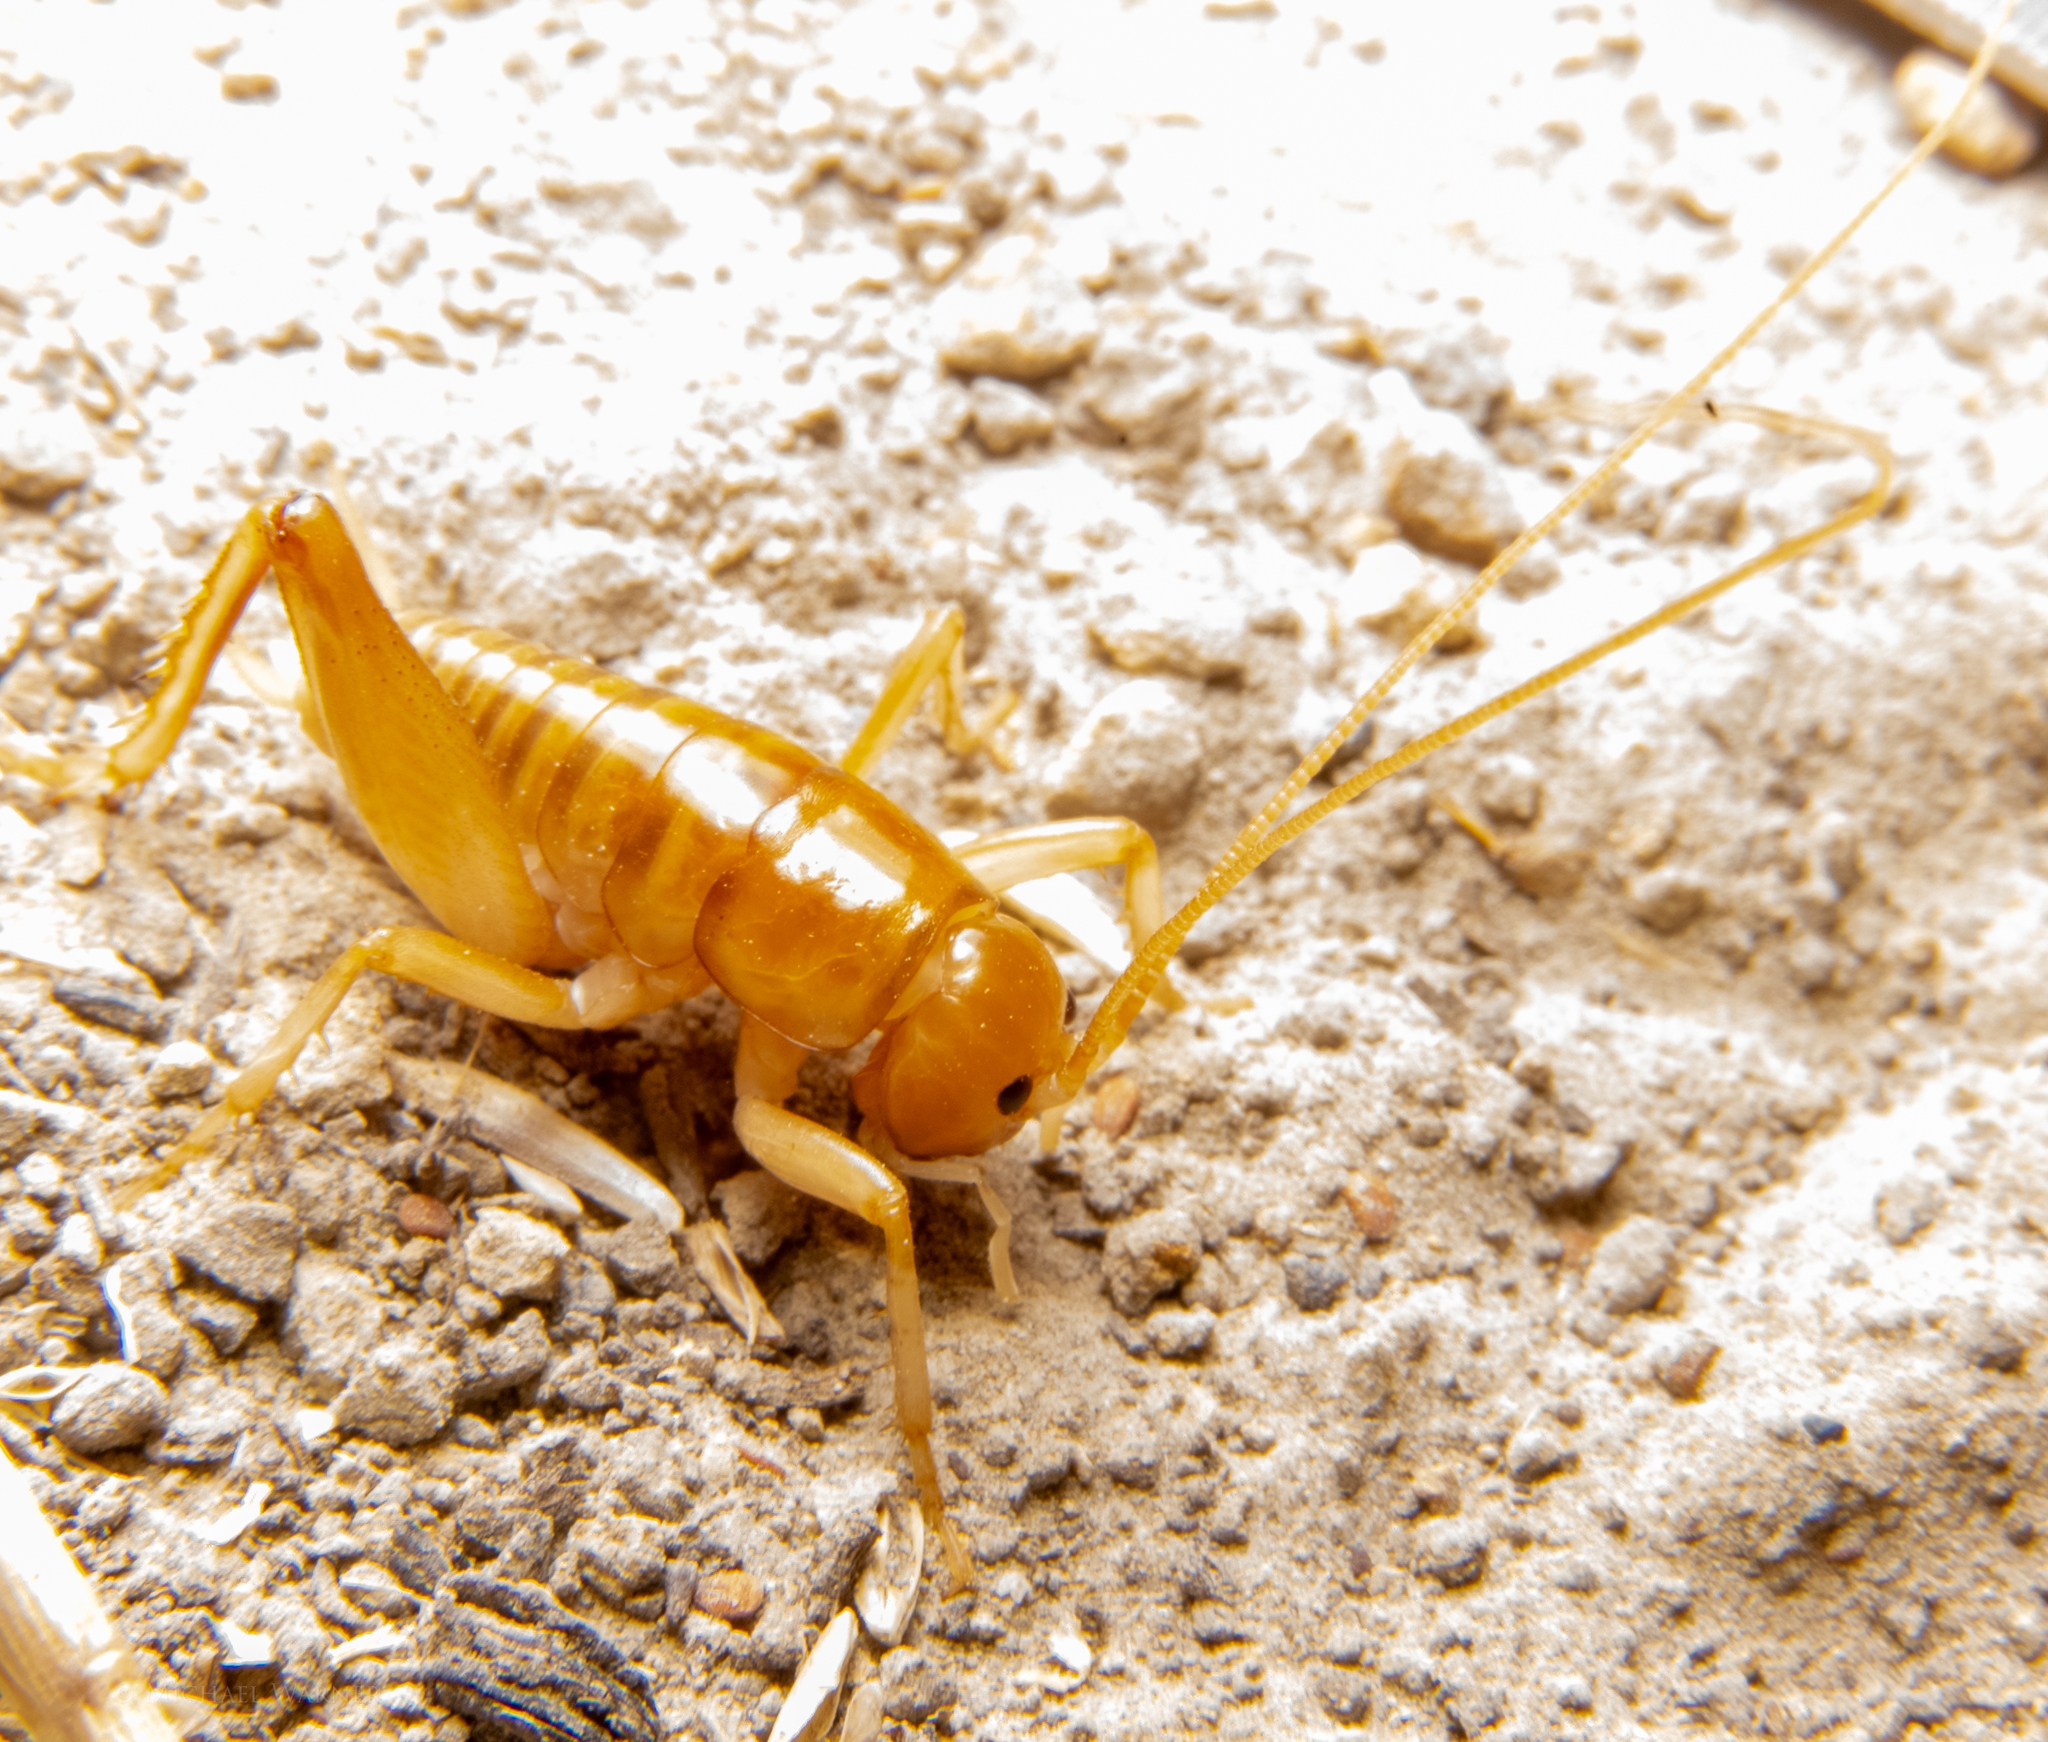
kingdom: Animalia
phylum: Arthropoda
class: Insecta
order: Orthoptera
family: Rhaphidophoridae
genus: Ceuthophilus
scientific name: Ceuthophilus californianus
